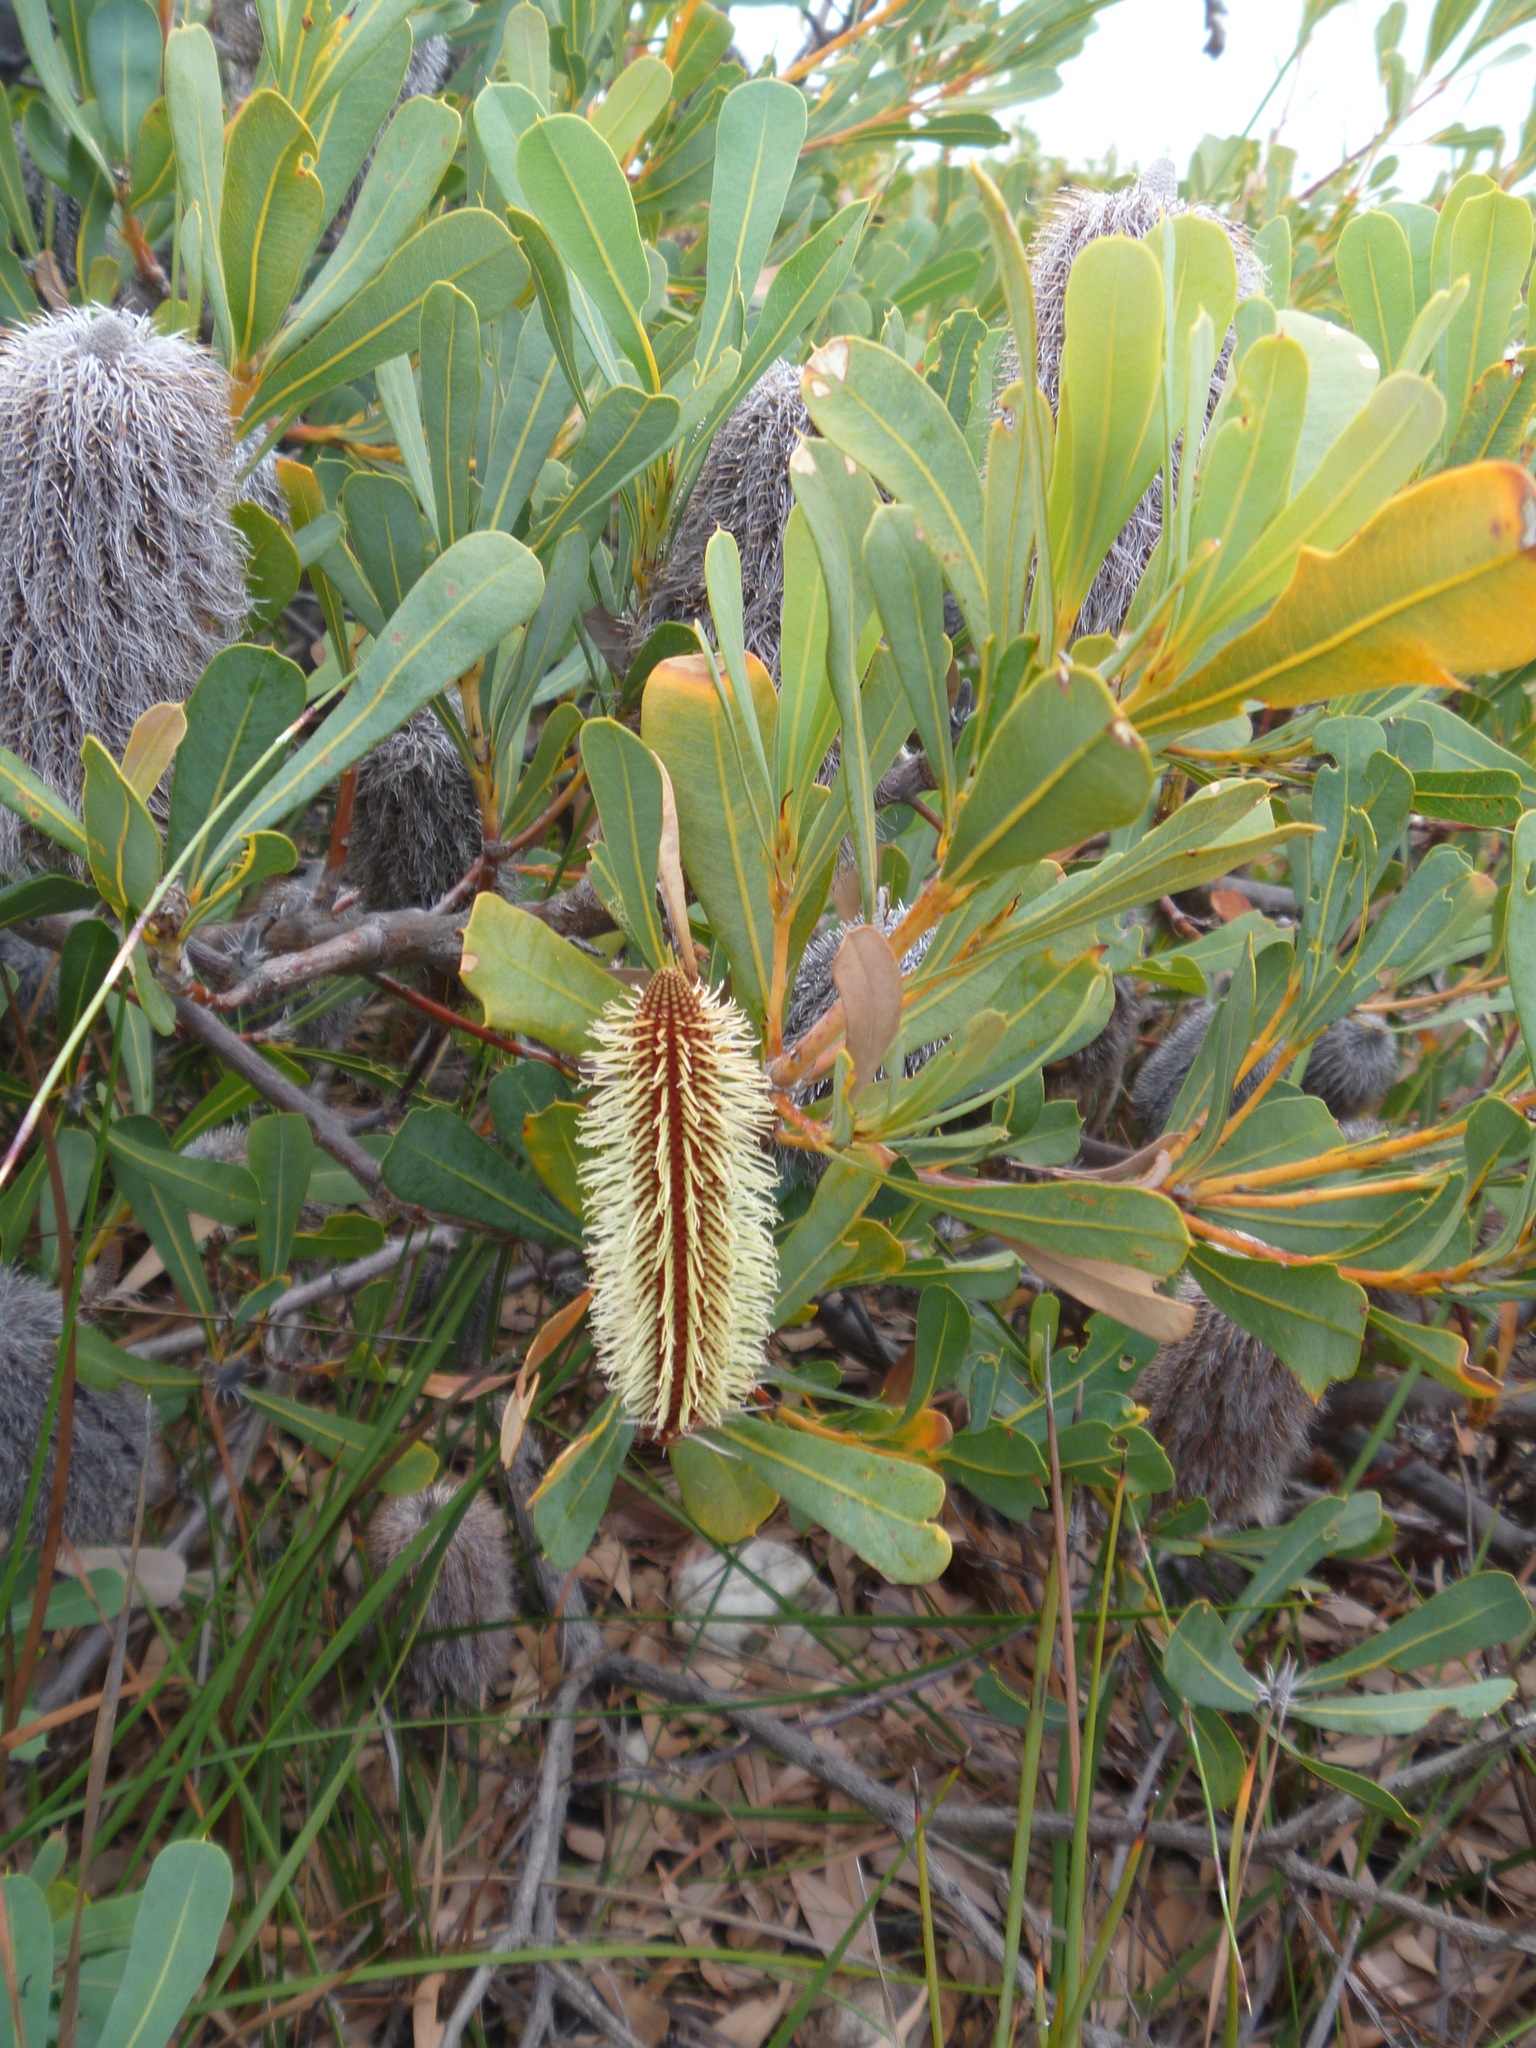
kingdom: Plantae
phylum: Tracheophyta
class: Magnoliopsida
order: Proteales
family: Proteaceae
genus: Banksia
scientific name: Banksia oreophila
